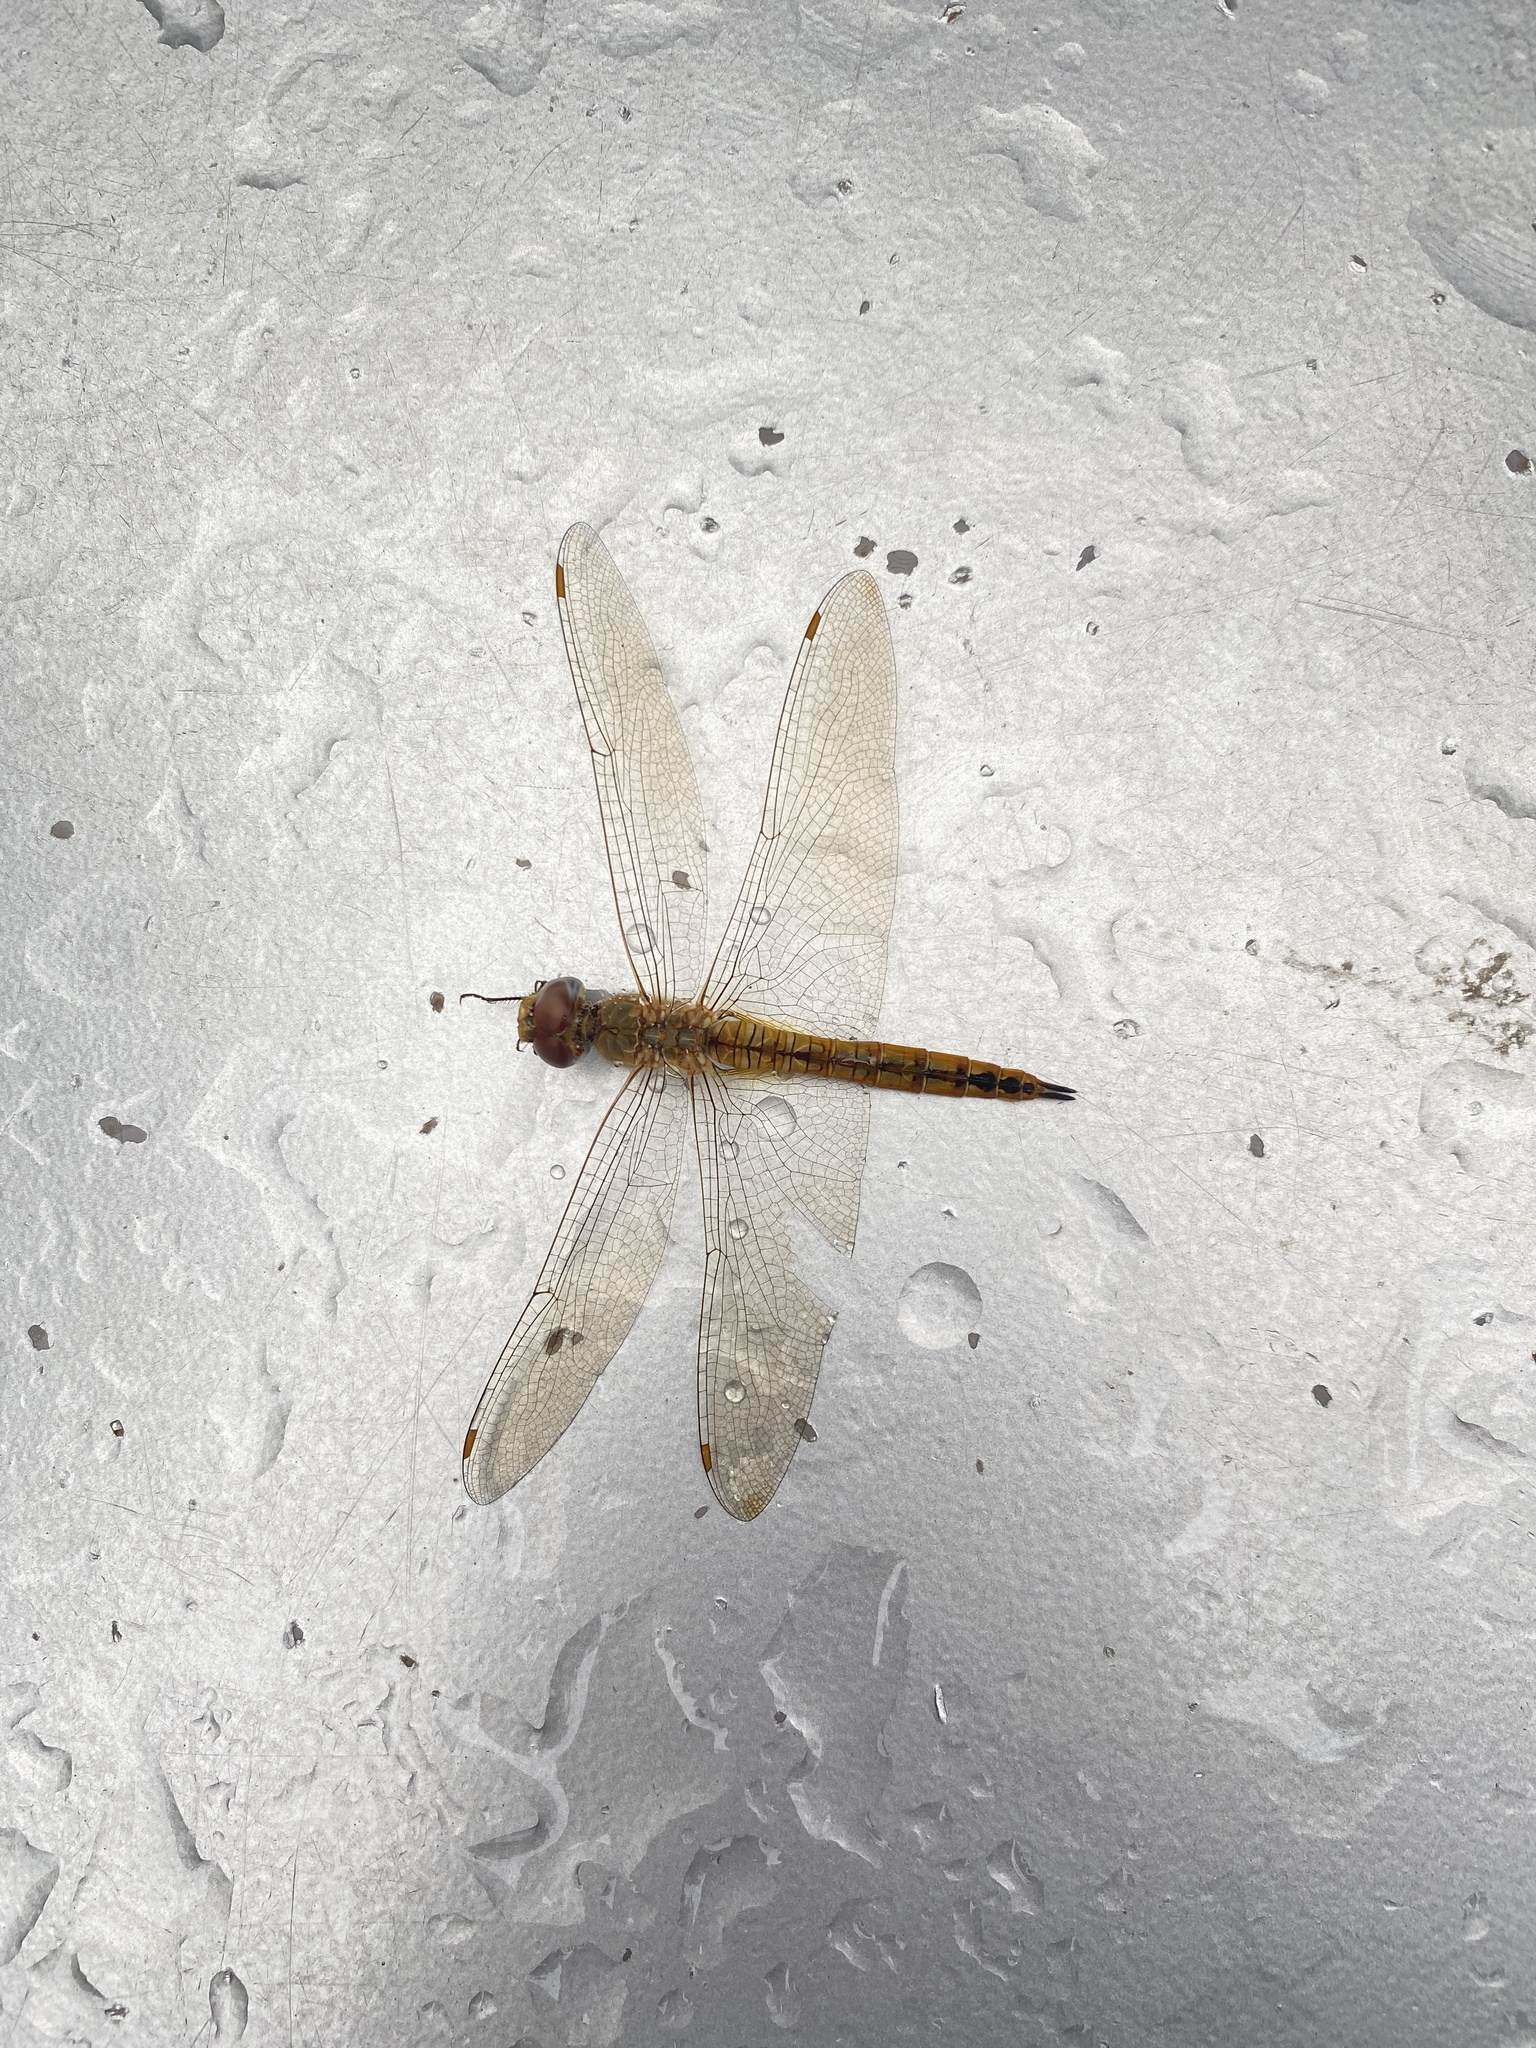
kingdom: Animalia
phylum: Arthropoda
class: Insecta
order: Odonata
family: Libellulidae
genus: Pantala
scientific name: Pantala flavescens
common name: Wandering glider
